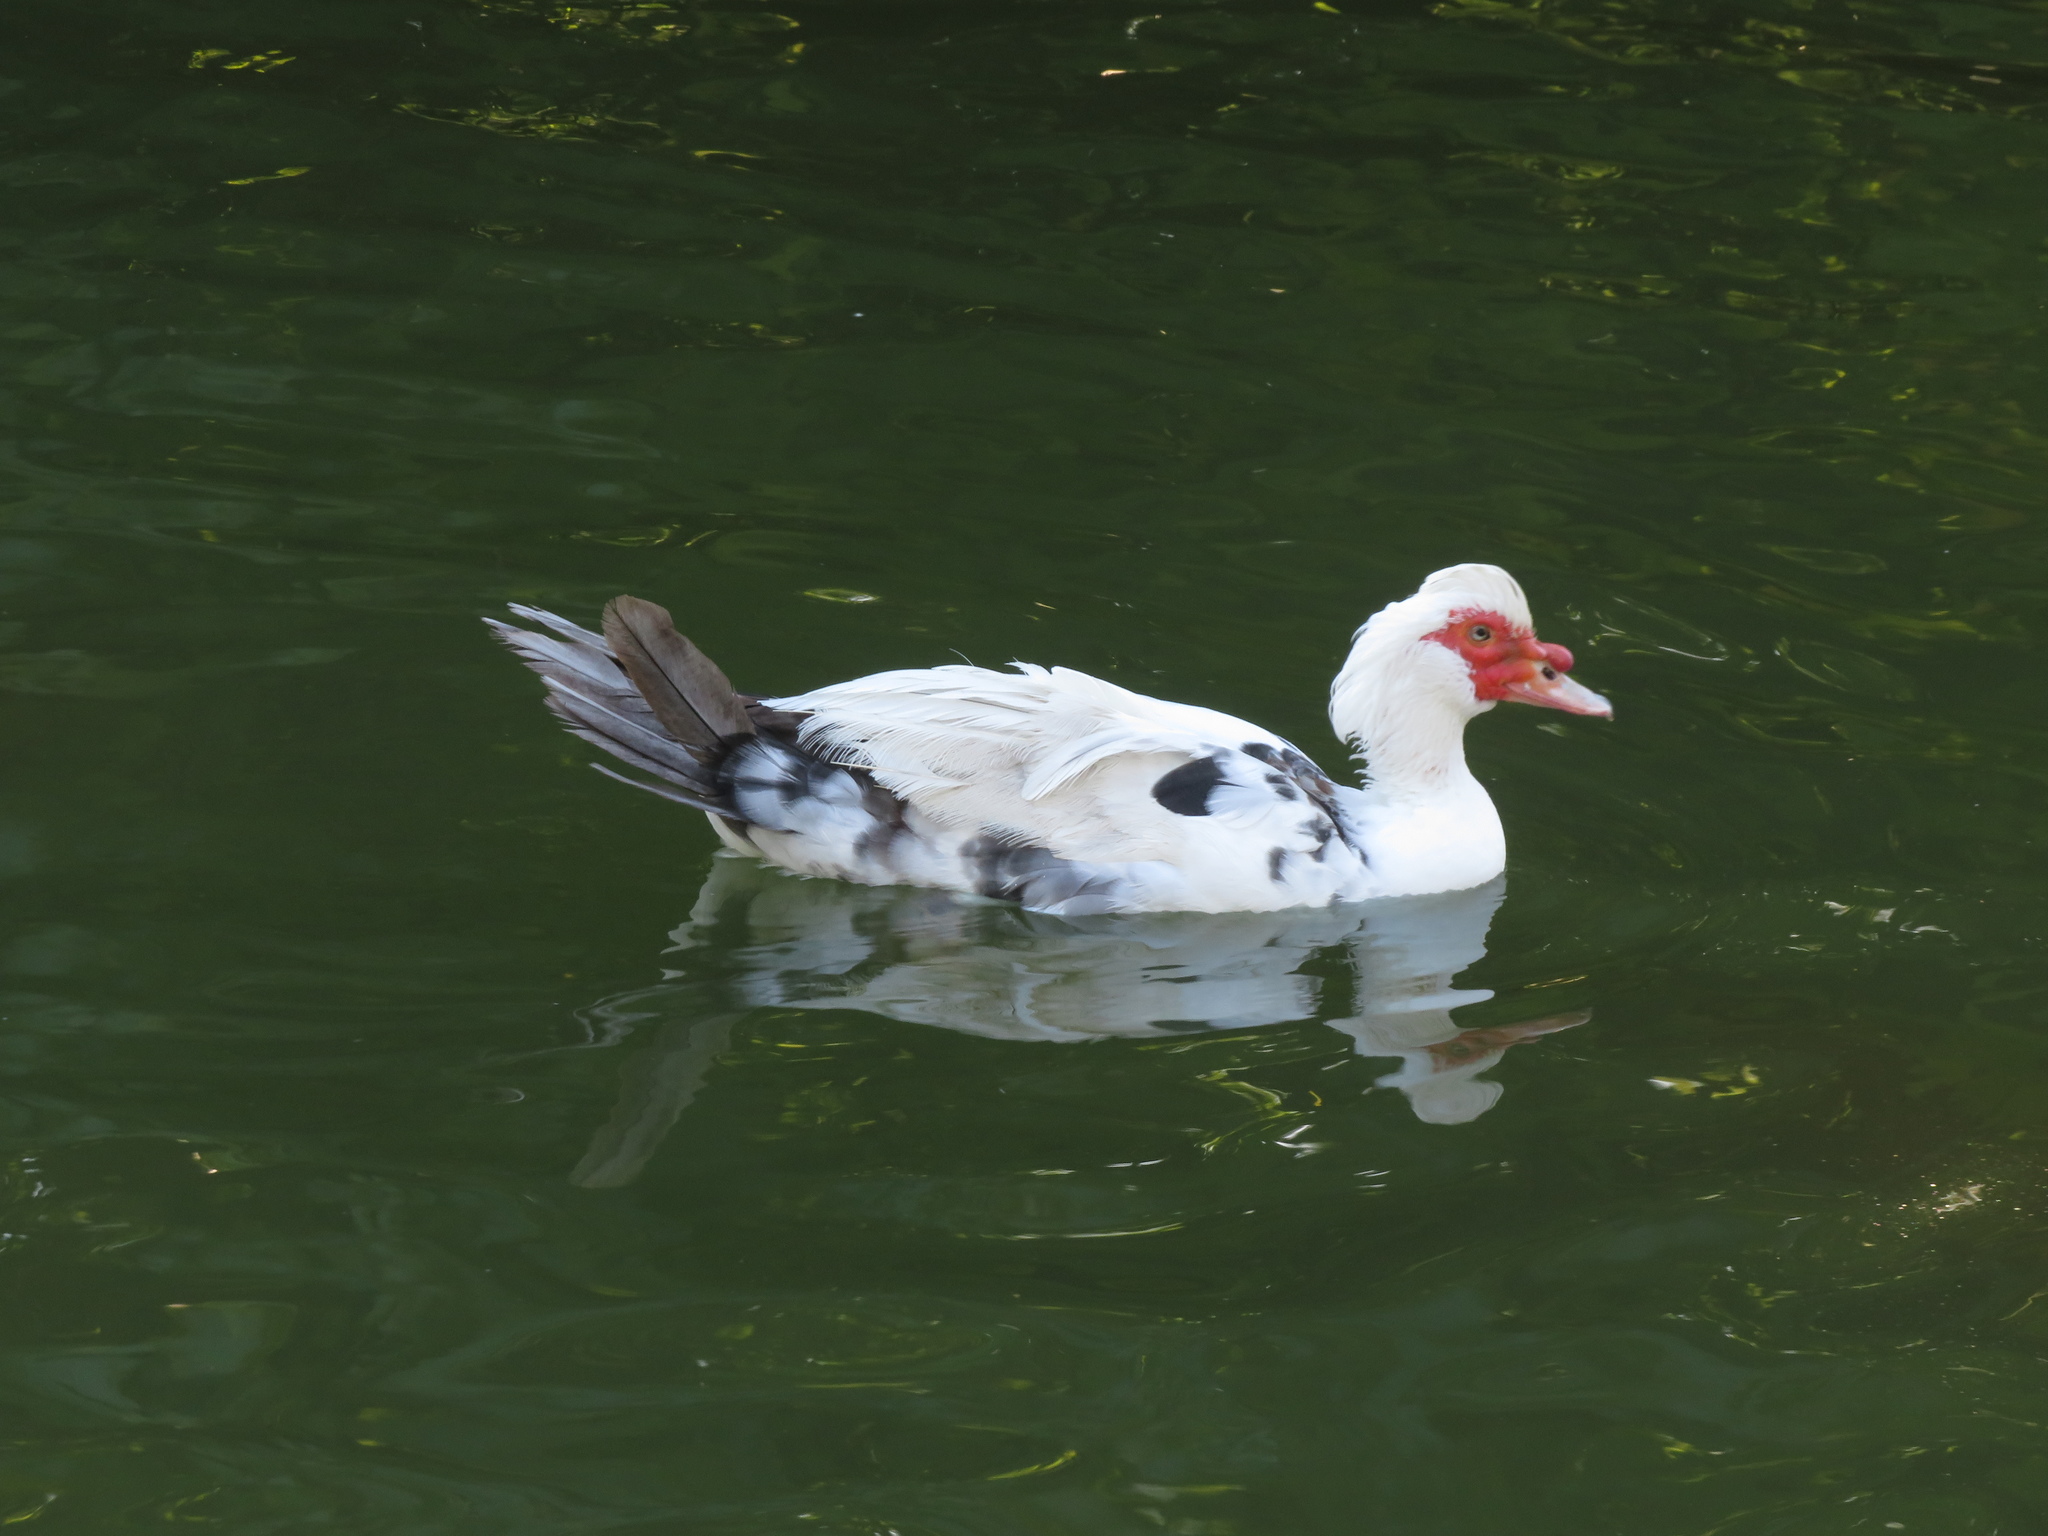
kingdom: Animalia
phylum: Chordata
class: Aves
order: Anseriformes
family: Anatidae
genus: Cairina
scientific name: Cairina moschata
